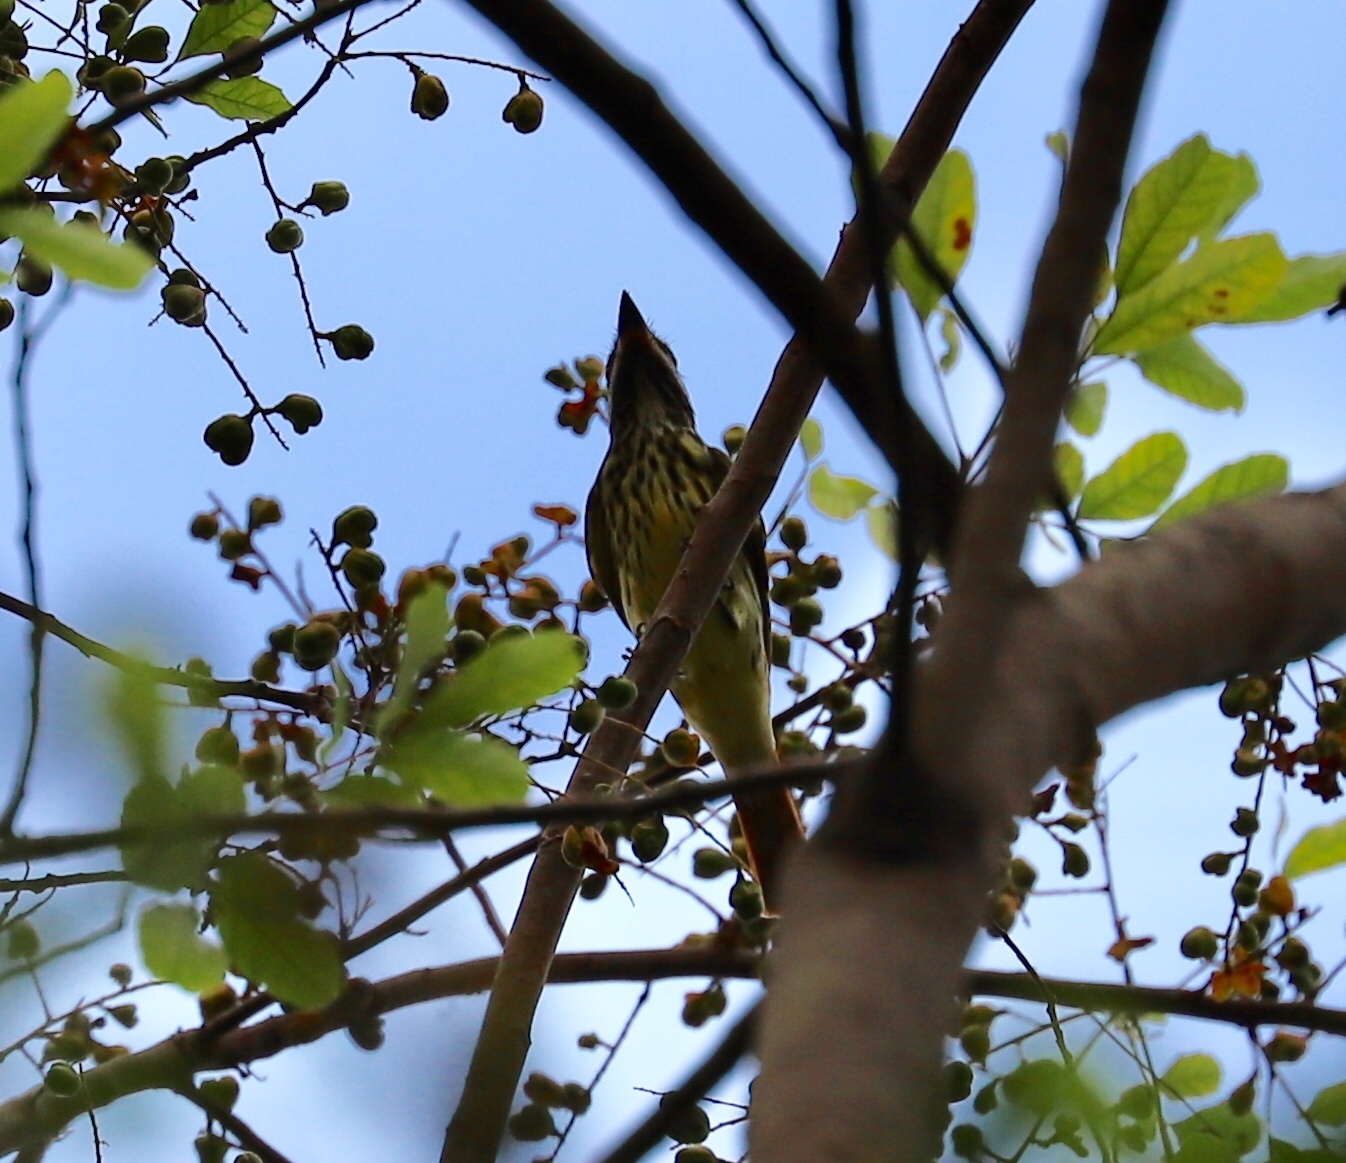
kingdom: Animalia
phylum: Chordata
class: Aves
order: Passeriformes
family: Tyrannidae
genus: Myiodynastes
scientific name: Myiodynastes luteiventris
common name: Sulphur-bellied flycatcher
